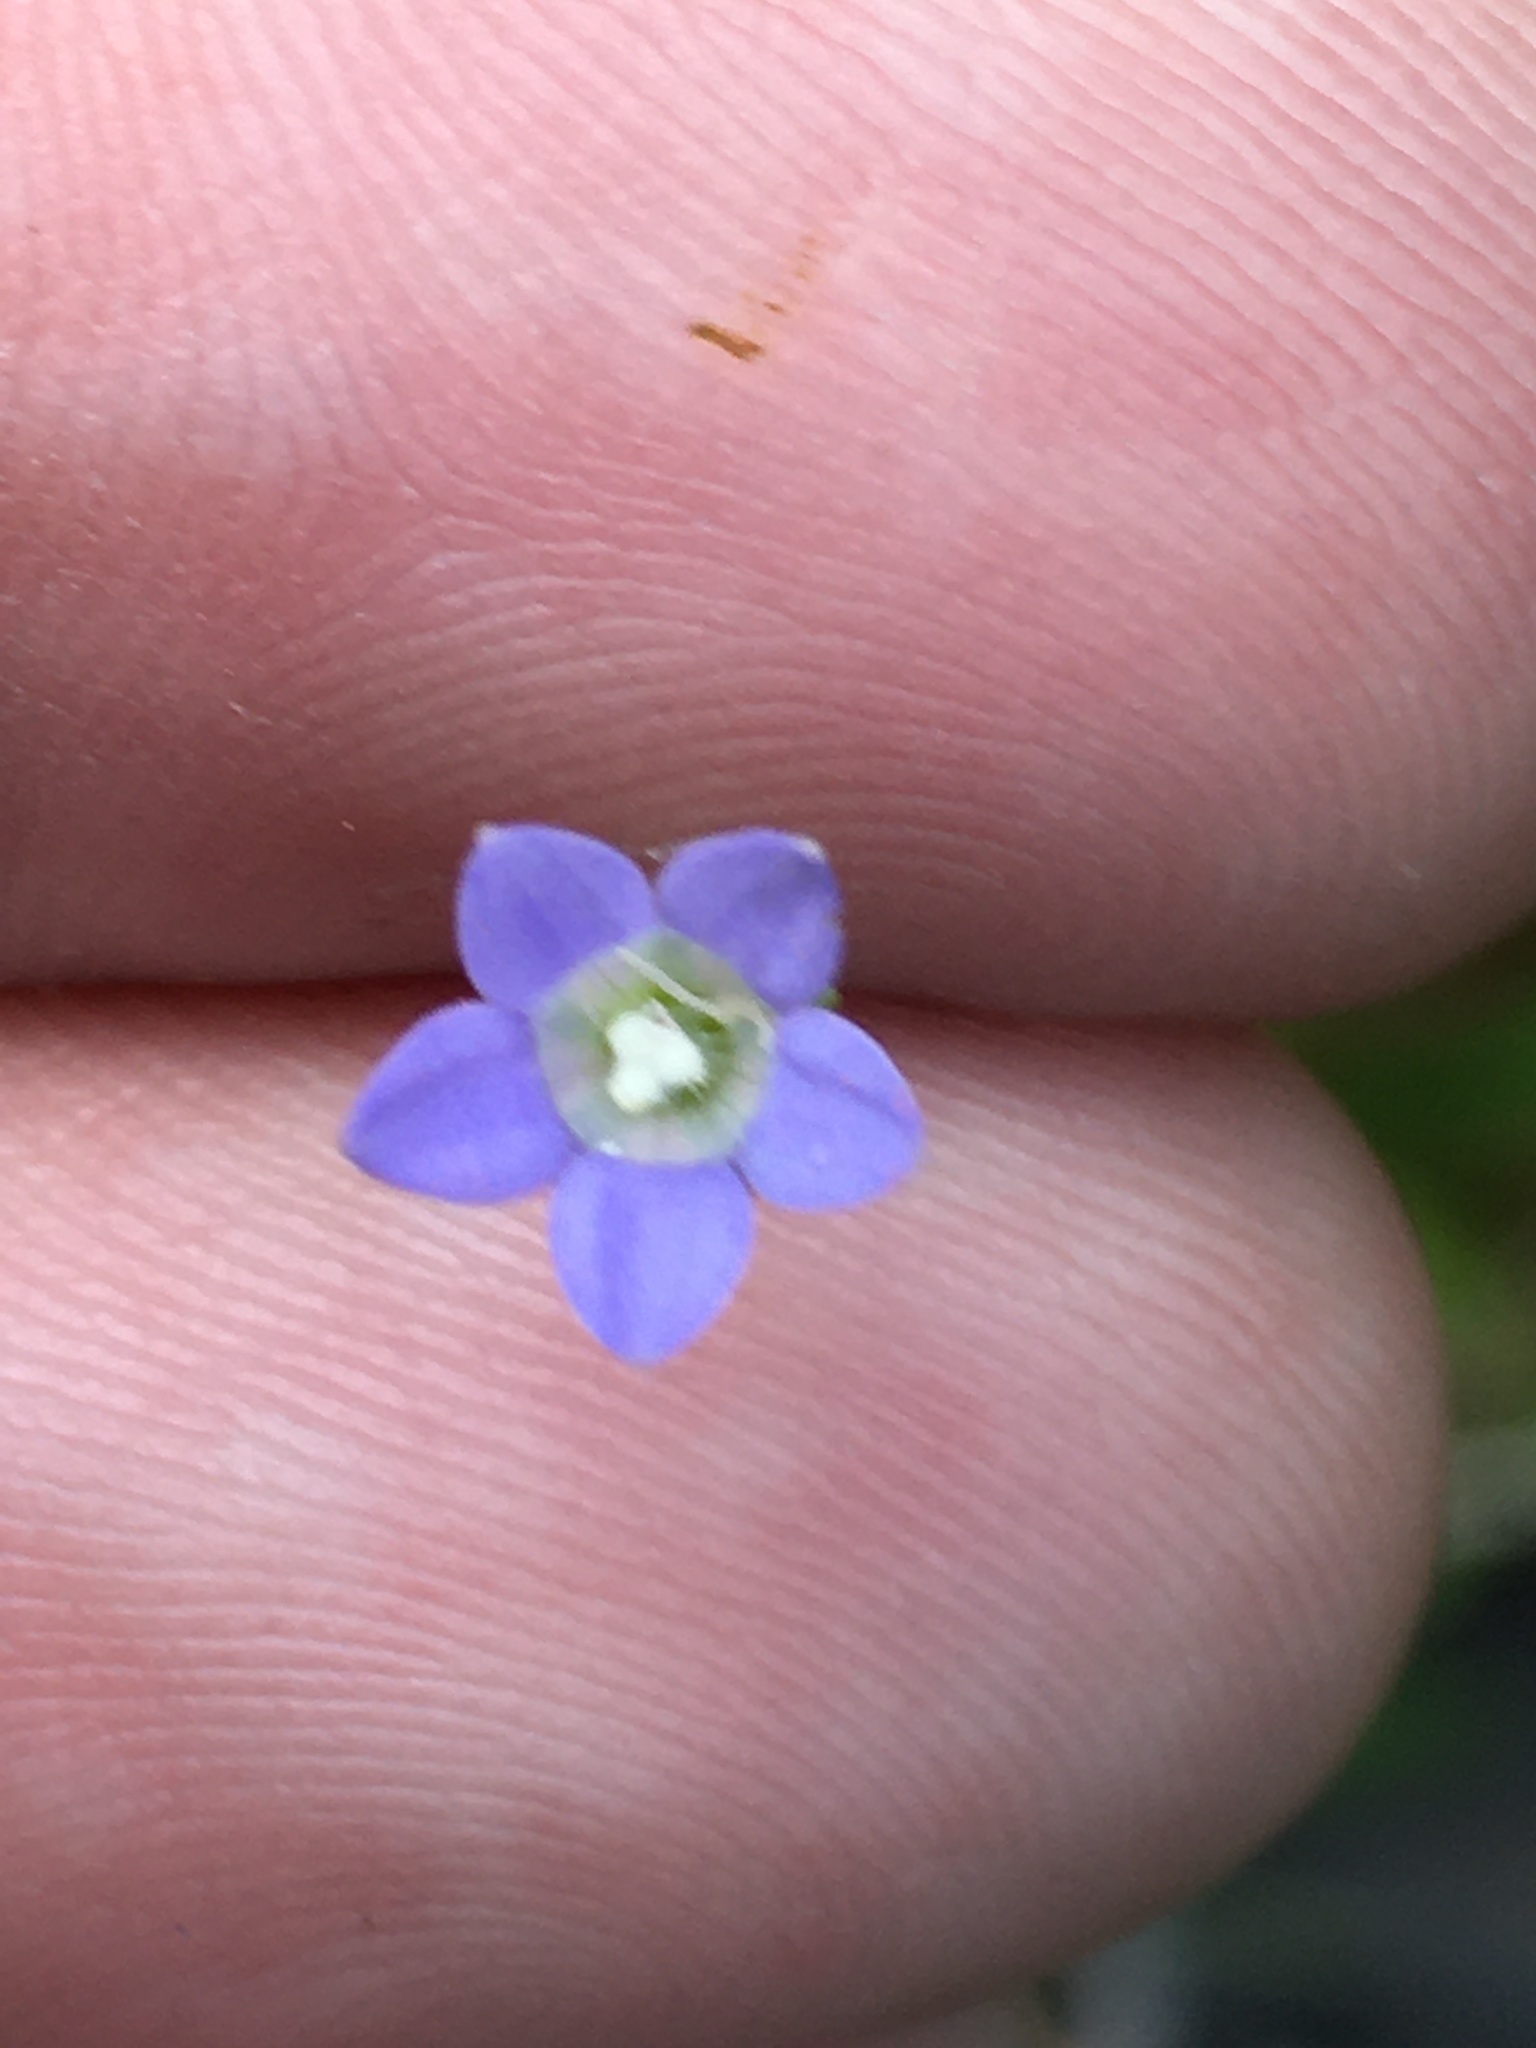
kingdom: Plantae
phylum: Tracheophyta
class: Magnoliopsida
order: Asterales
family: Campanulaceae
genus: Wahlenbergia
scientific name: Wahlenbergia marginata
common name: Southern rockbell
